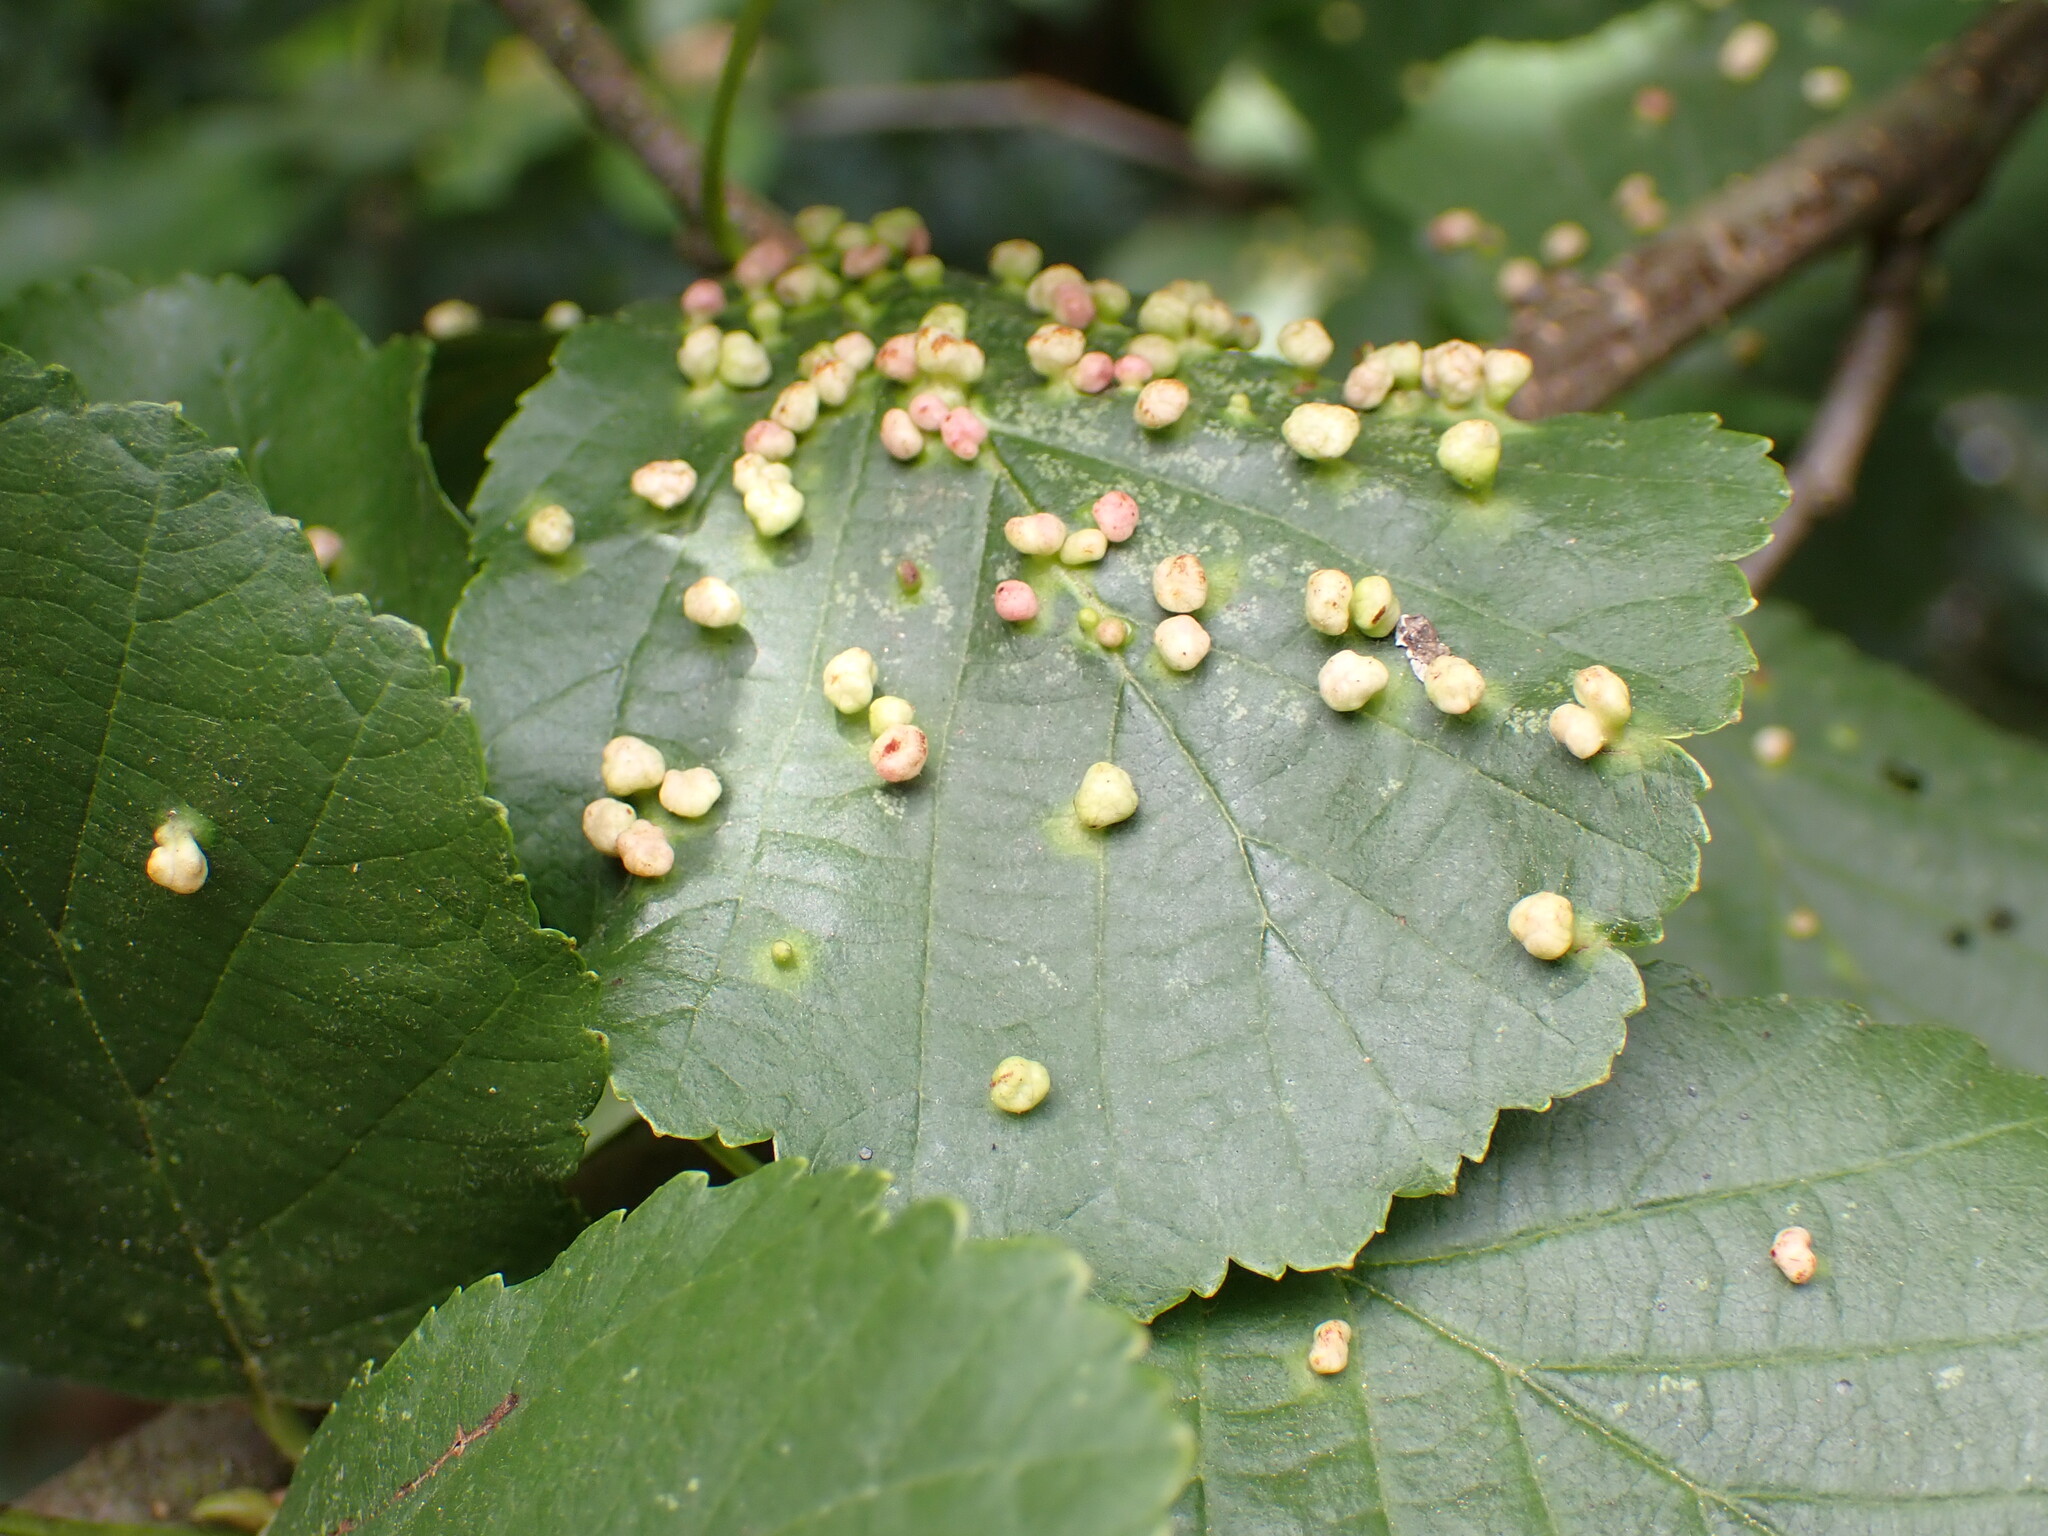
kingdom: Animalia
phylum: Arthropoda
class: Arachnida
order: Trombidiformes
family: Eriophyidae
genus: Eriophyes
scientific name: Eriophyes laevis
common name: Alder leaf gall mite
